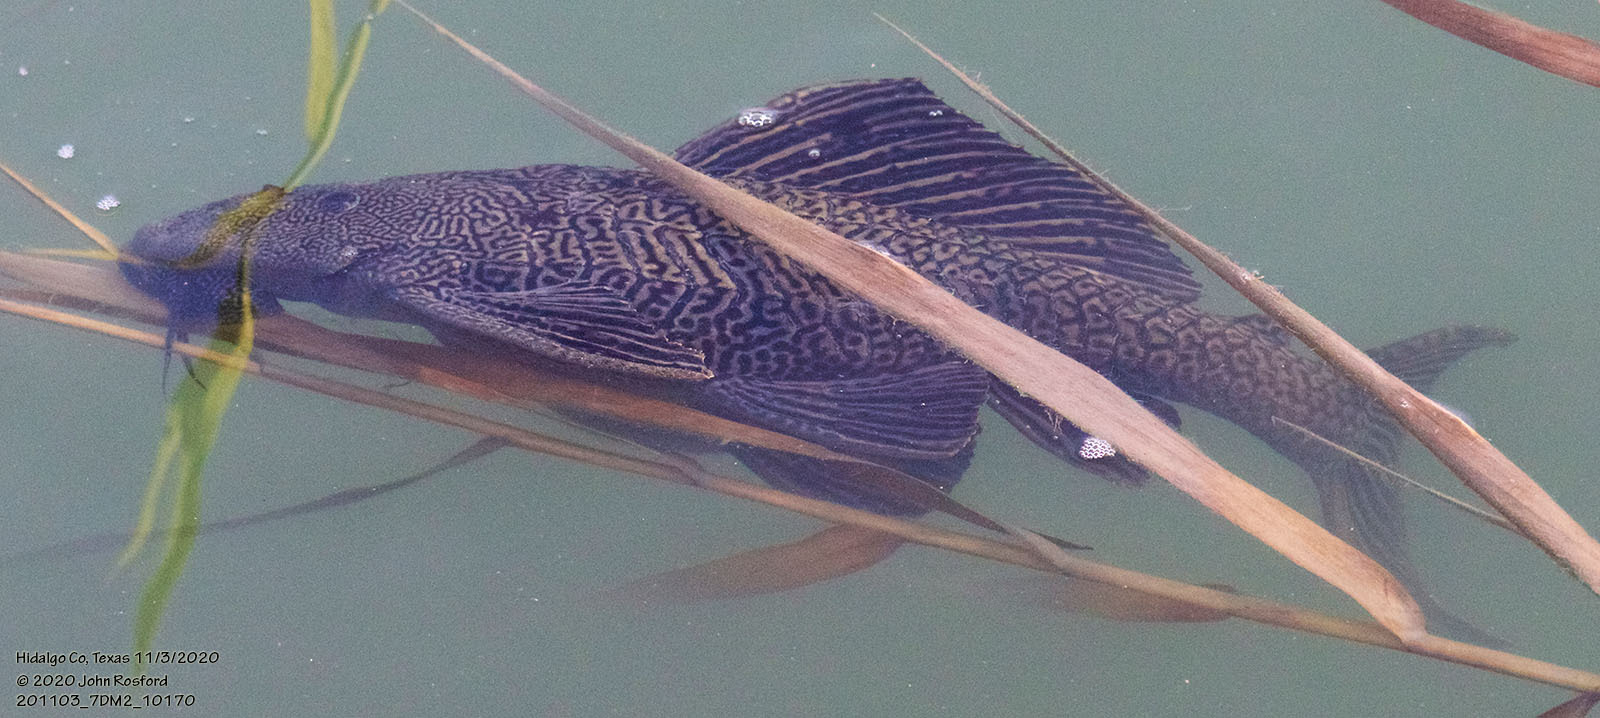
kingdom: Animalia
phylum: Chordata
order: Siluriformes
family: Loricariidae
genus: Pterygoplichthys
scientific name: Pterygoplichthys
